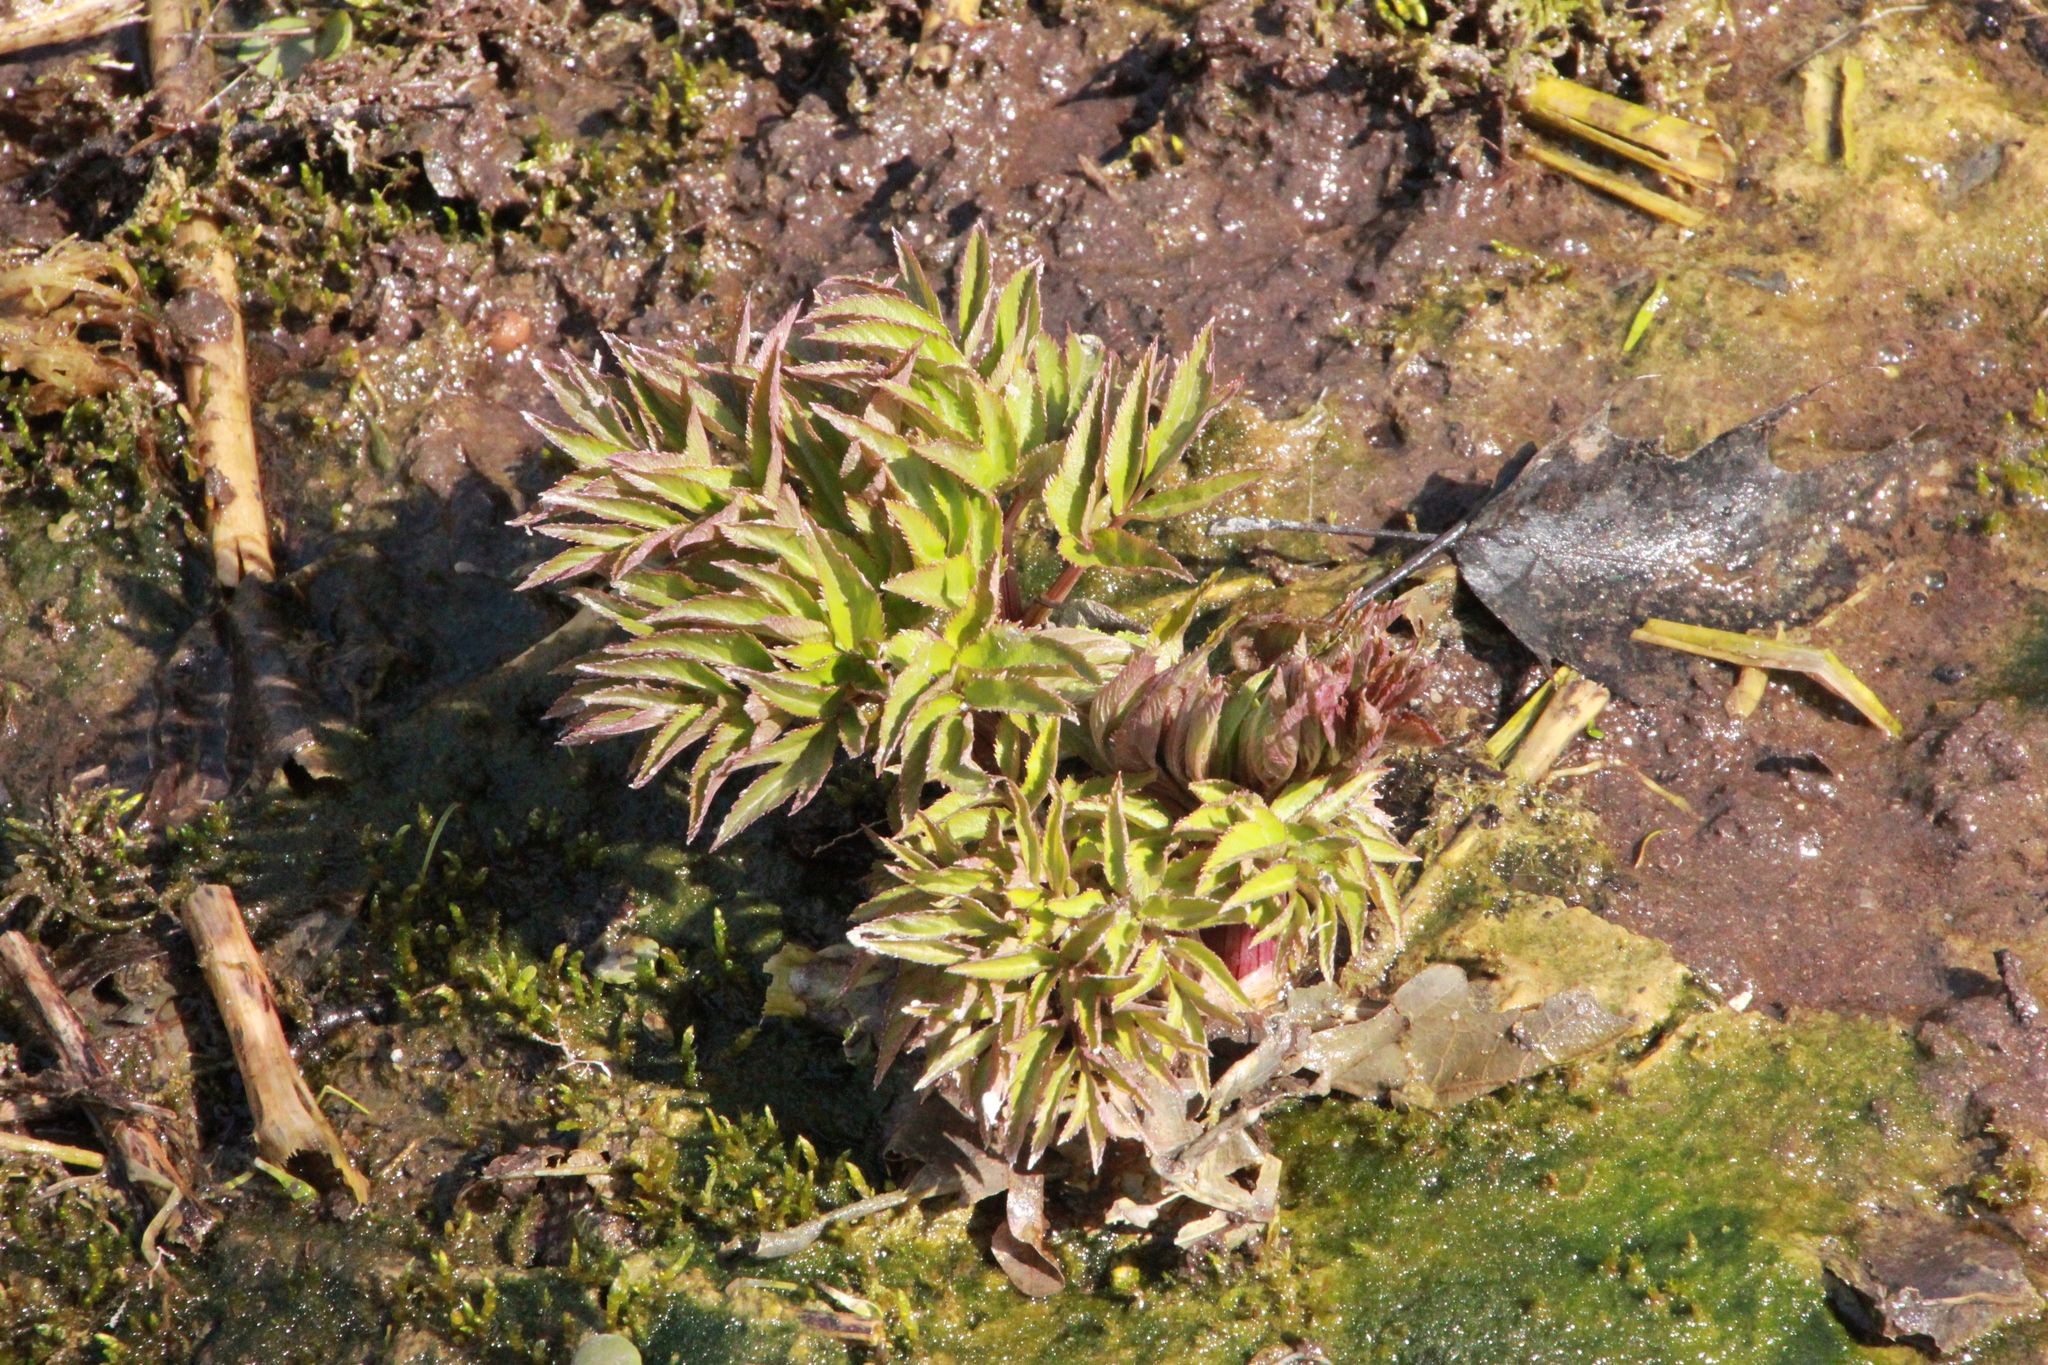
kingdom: Plantae
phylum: Tracheophyta
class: Magnoliopsida
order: Apiales
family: Apiaceae
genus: Angelica
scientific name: Angelica atropurpurea
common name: Great angelica
